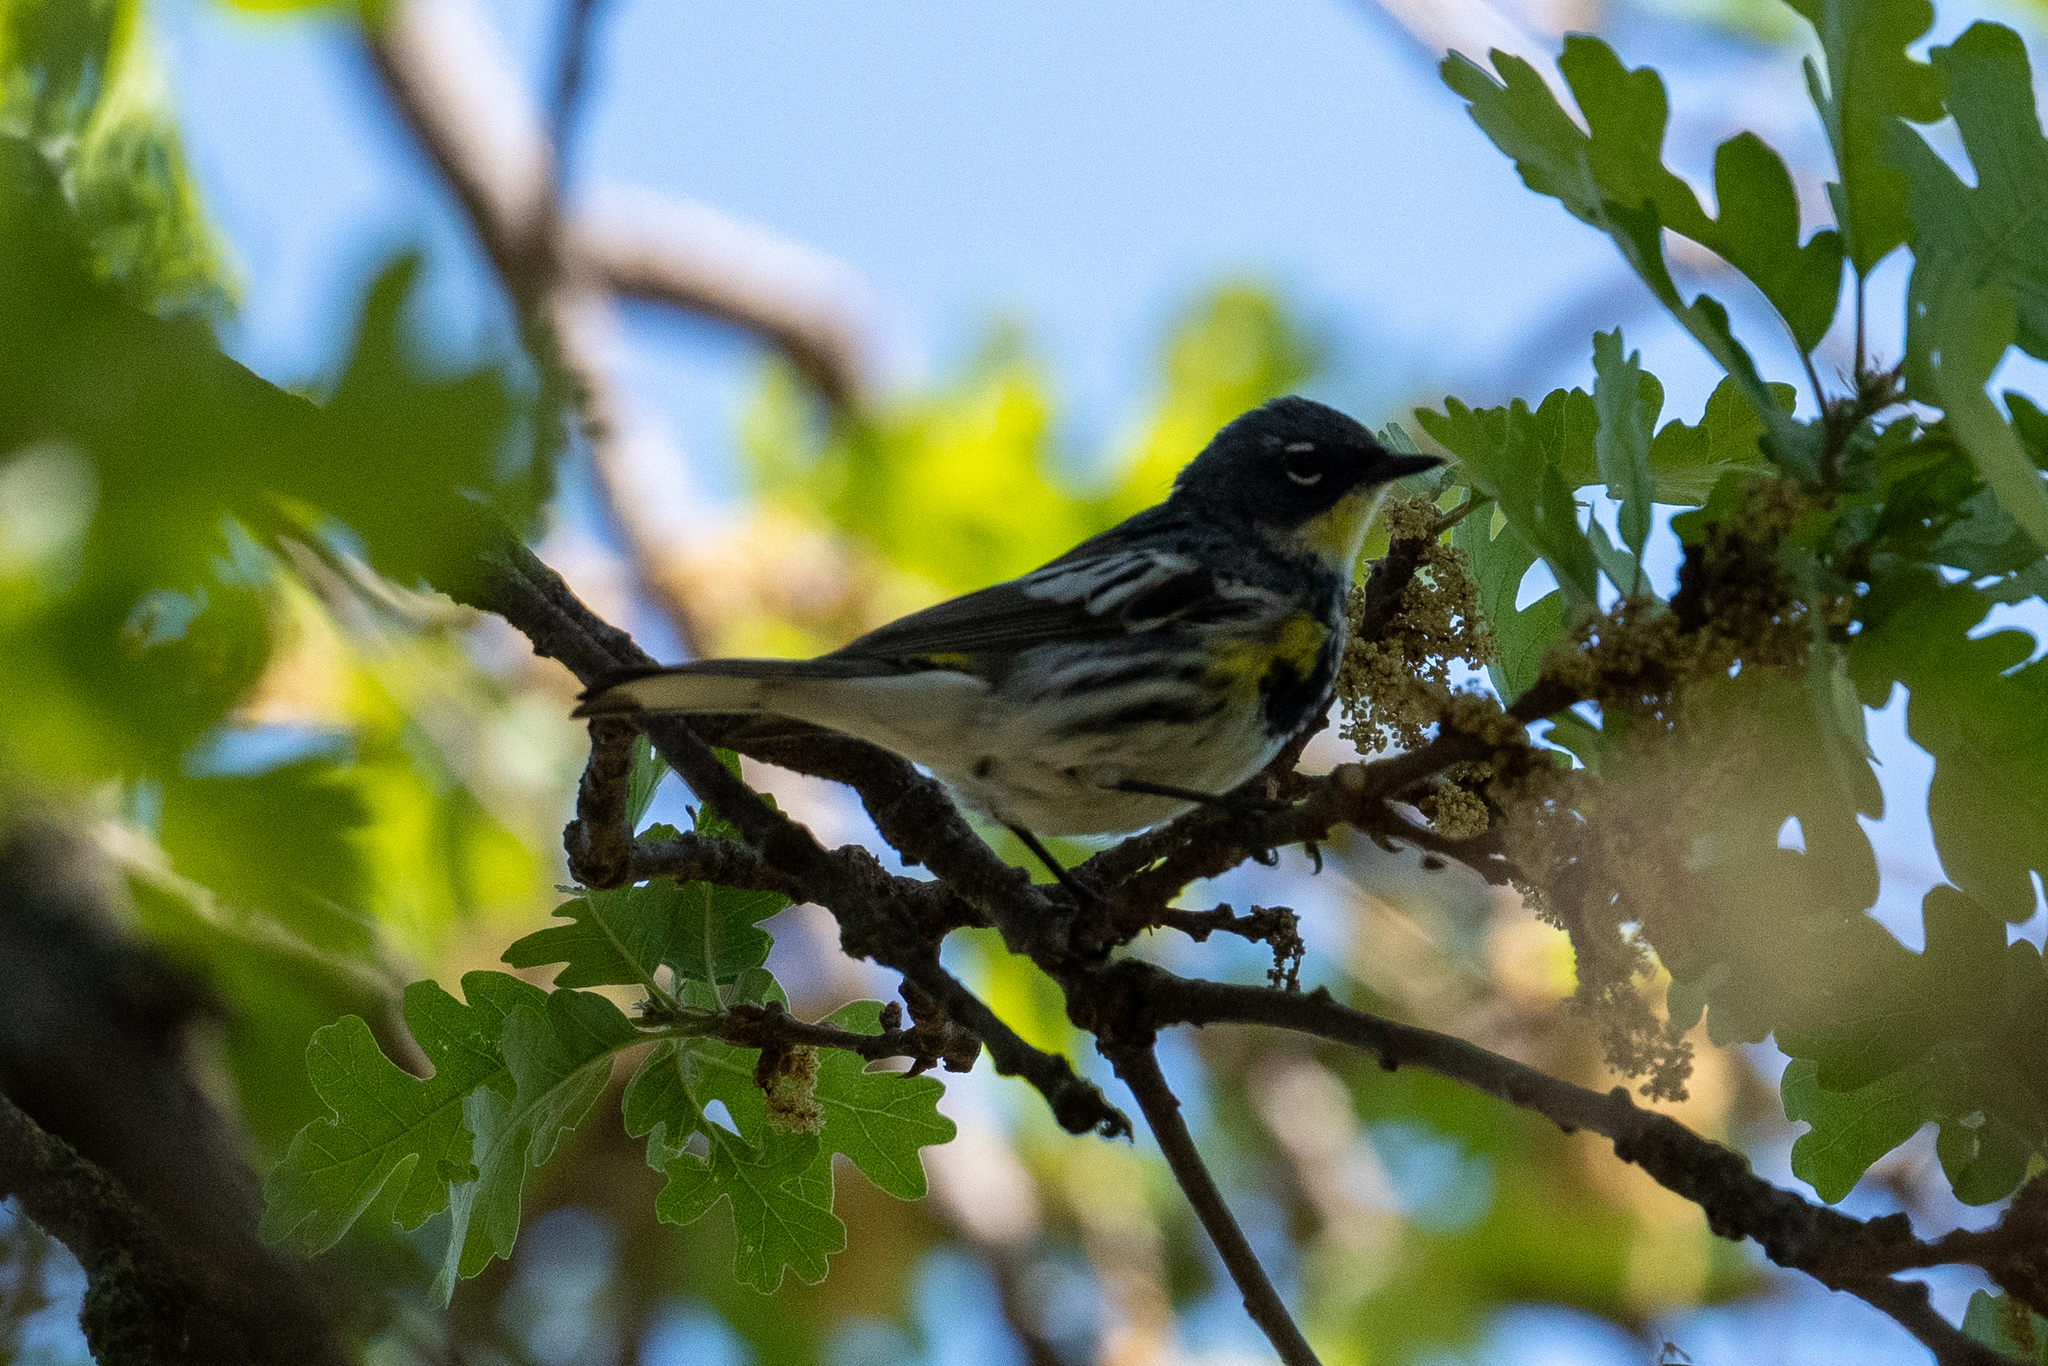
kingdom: Animalia
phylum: Chordata
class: Aves
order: Passeriformes
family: Parulidae
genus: Setophaga
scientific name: Setophaga coronata
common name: Myrtle warbler
